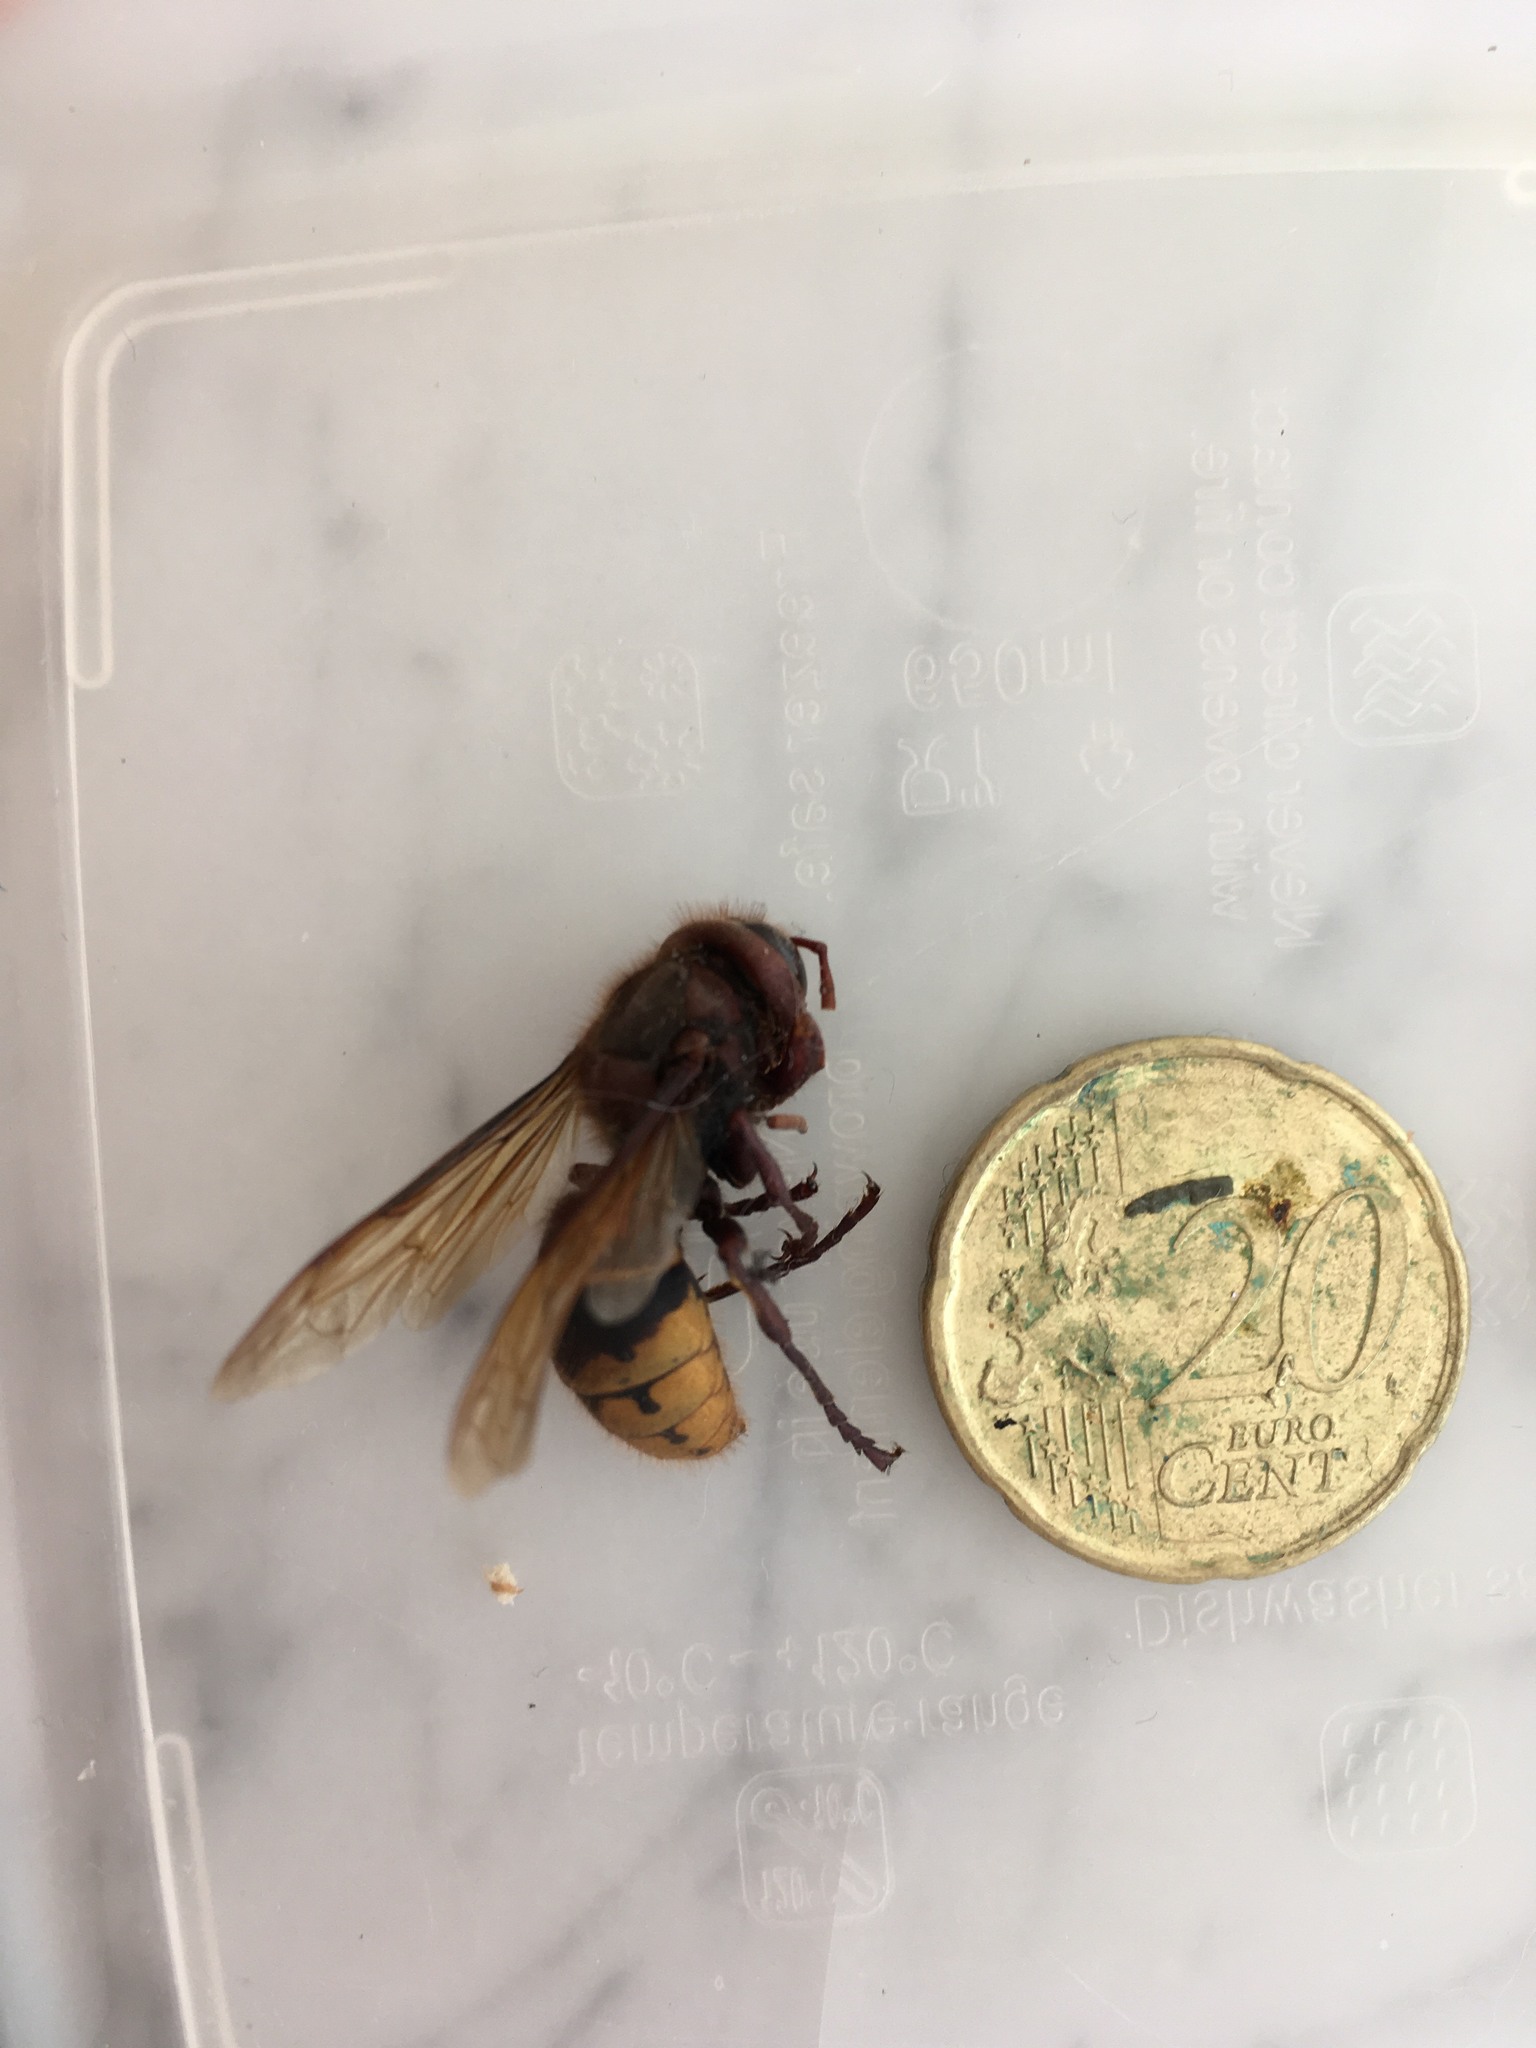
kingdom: Animalia
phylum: Arthropoda
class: Insecta
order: Hymenoptera
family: Vespidae
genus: Vespa
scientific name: Vespa crabro
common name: Hornet
